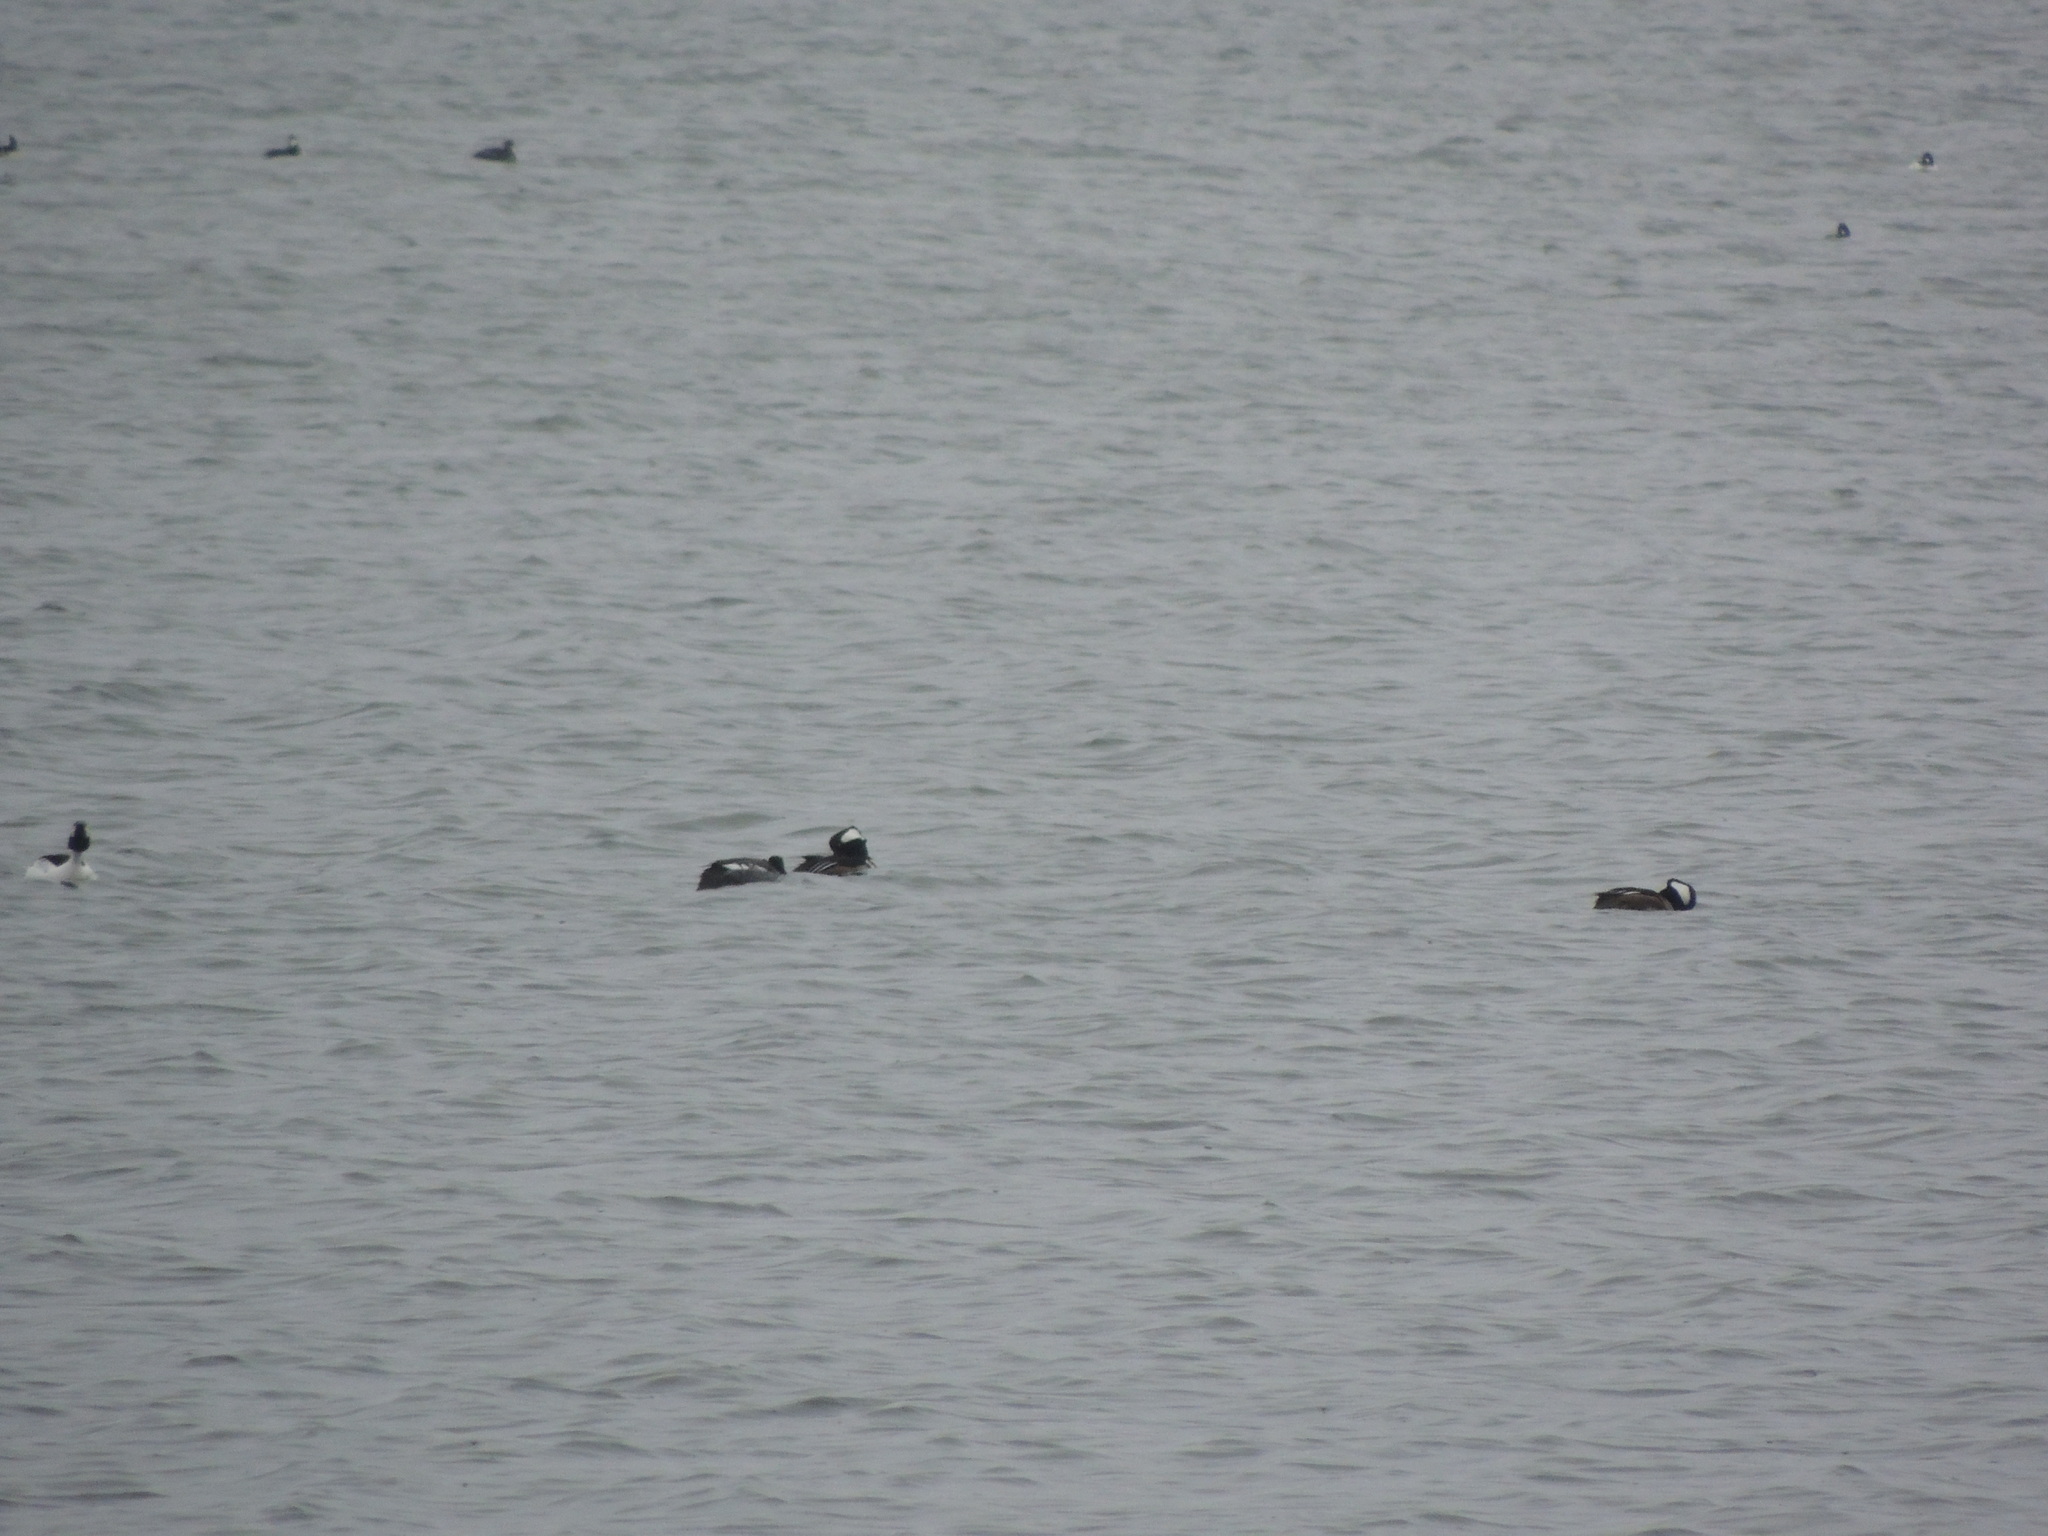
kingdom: Animalia
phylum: Chordata
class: Aves
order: Anseriformes
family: Anatidae
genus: Lophodytes
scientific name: Lophodytes cucullatus
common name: Hooded merganser
